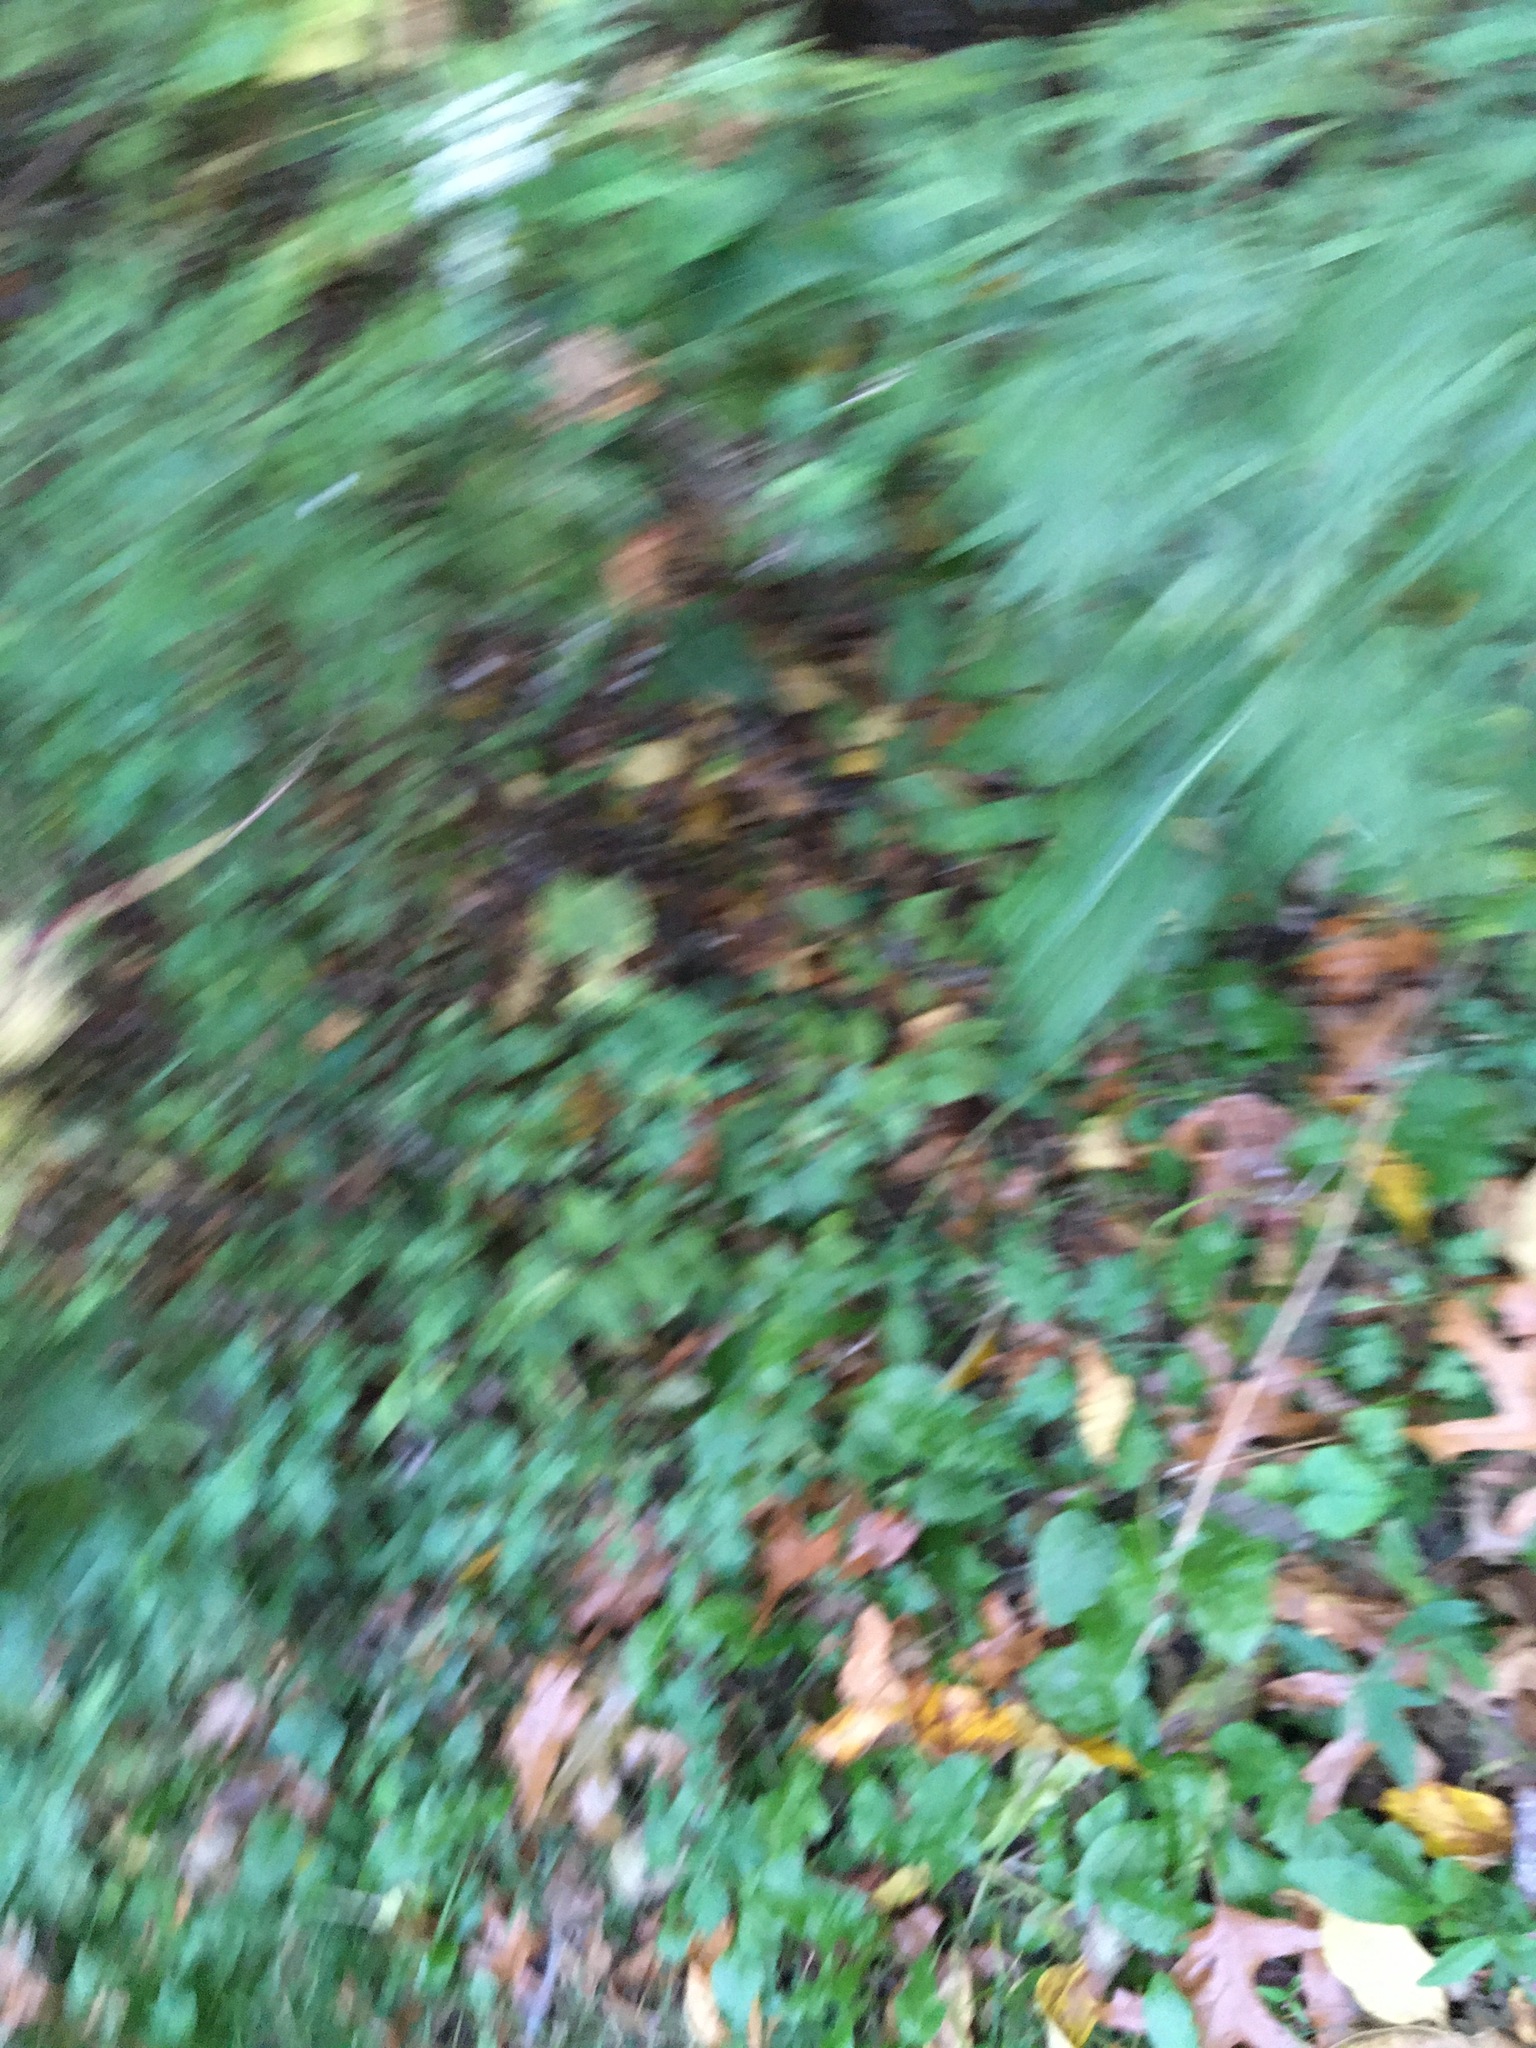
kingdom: Plantae
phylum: Tracheophyta
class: Magnoliopsida
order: Asterales
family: Asteraceae
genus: Artemisia
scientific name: Artemisia vulgaris
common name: Mugwort
